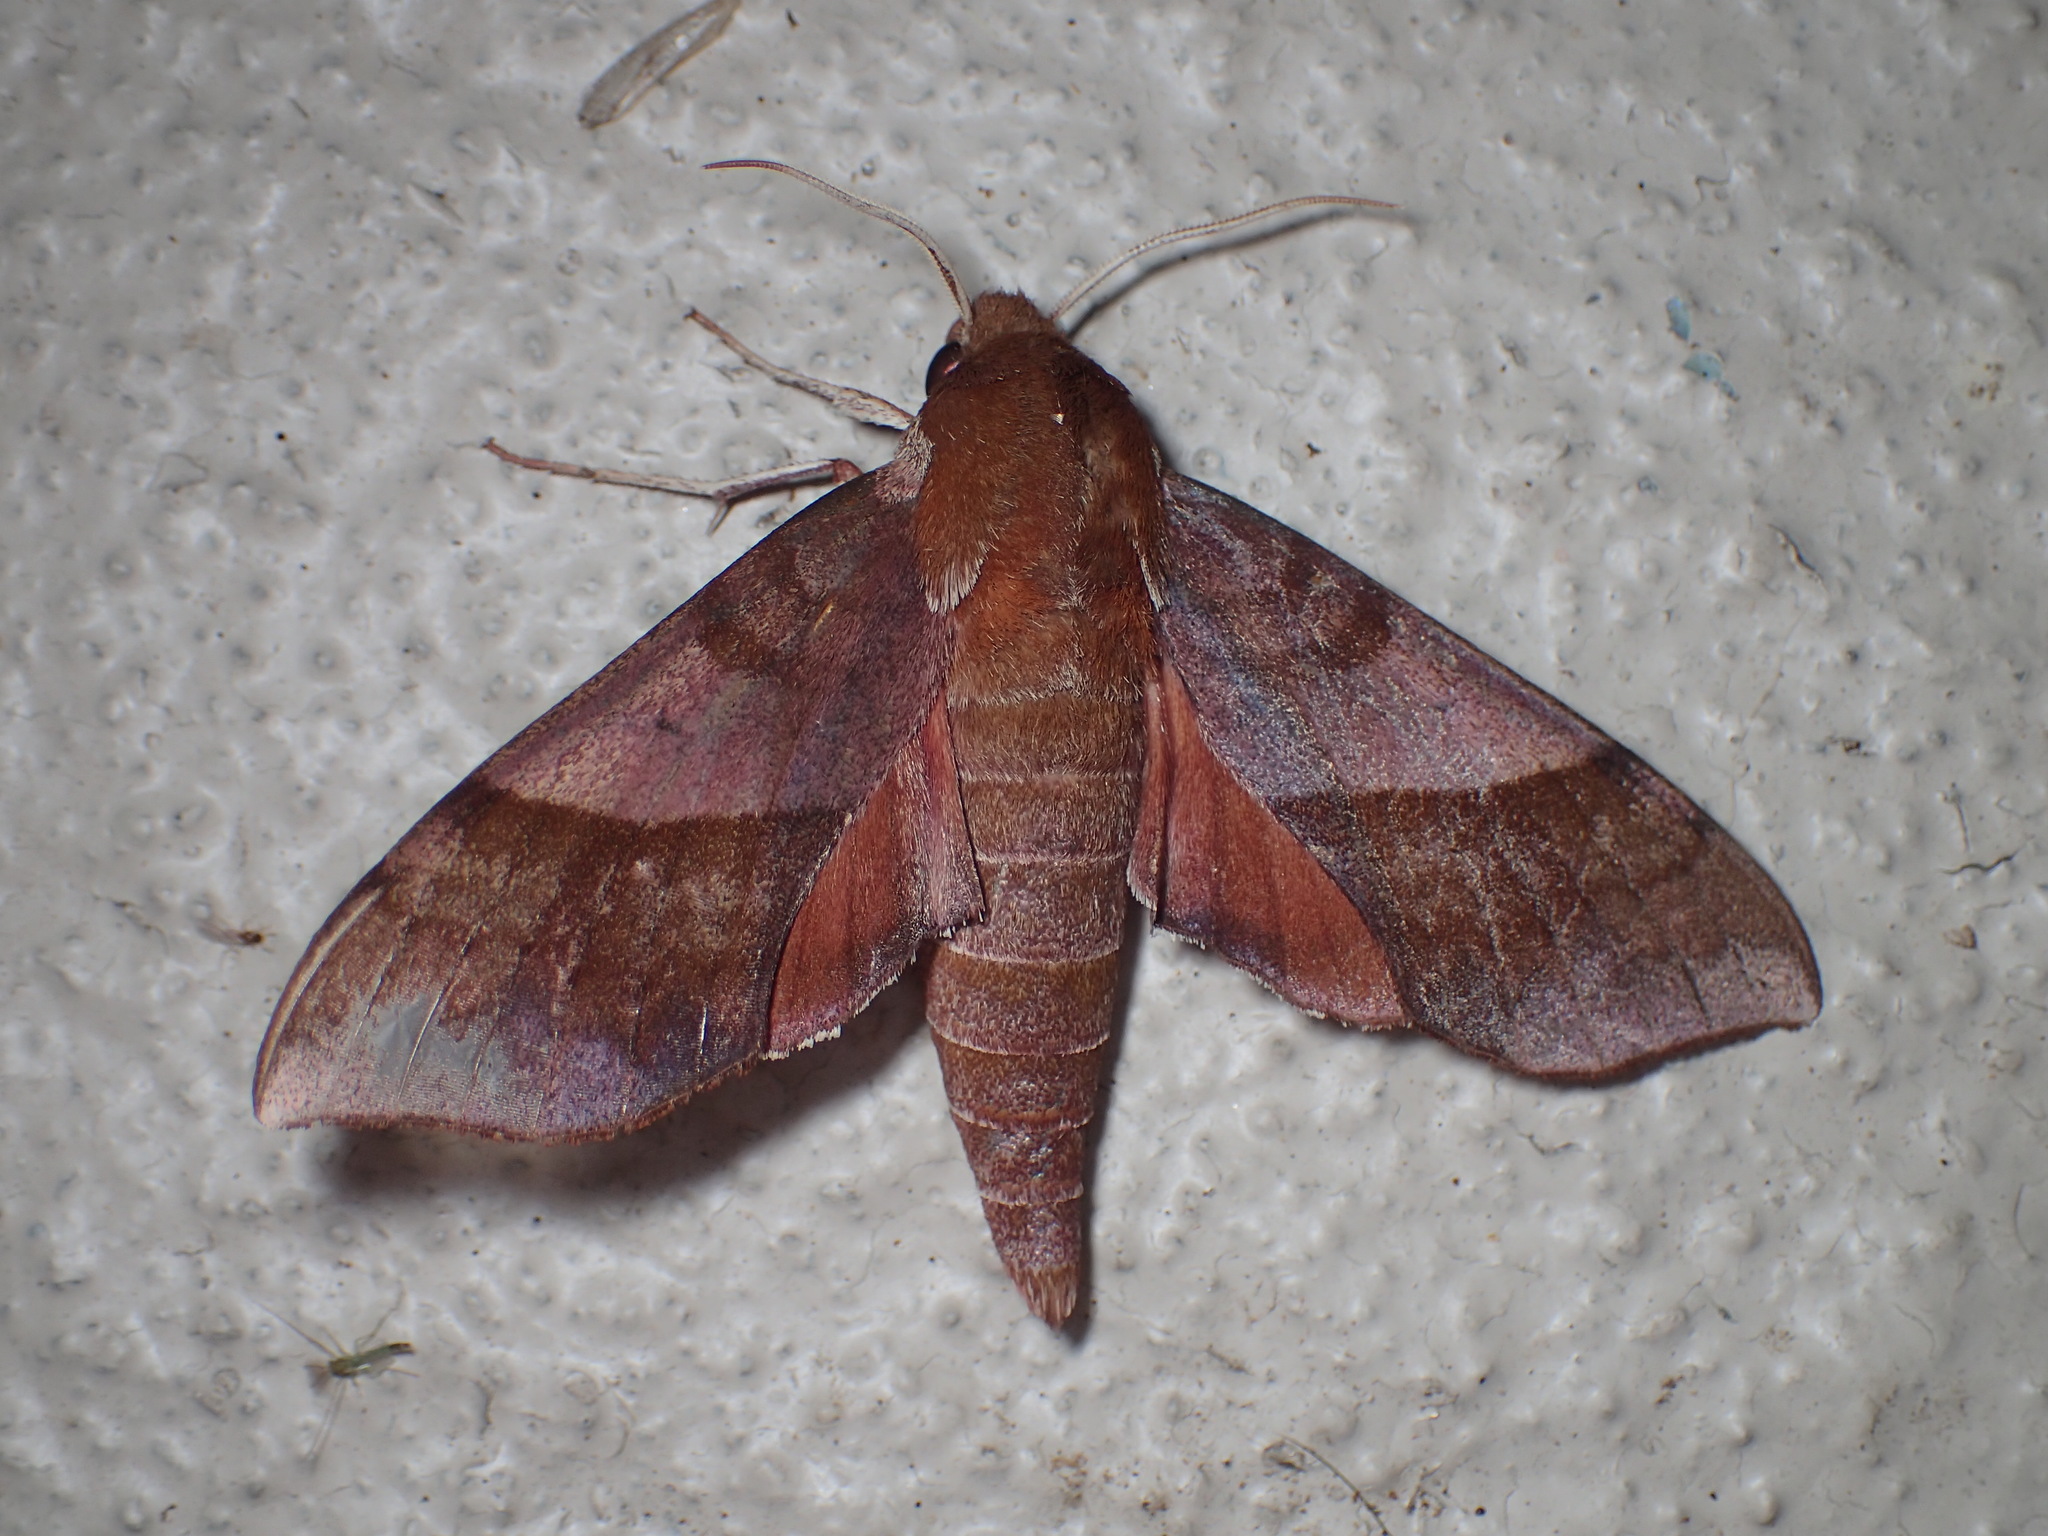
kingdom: Animalia
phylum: Arthropoda
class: Insecta
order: Lepidoptera
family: Sphingidae
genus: Darapsa
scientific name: Darapsa choerilus
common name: Azalea sphinx
